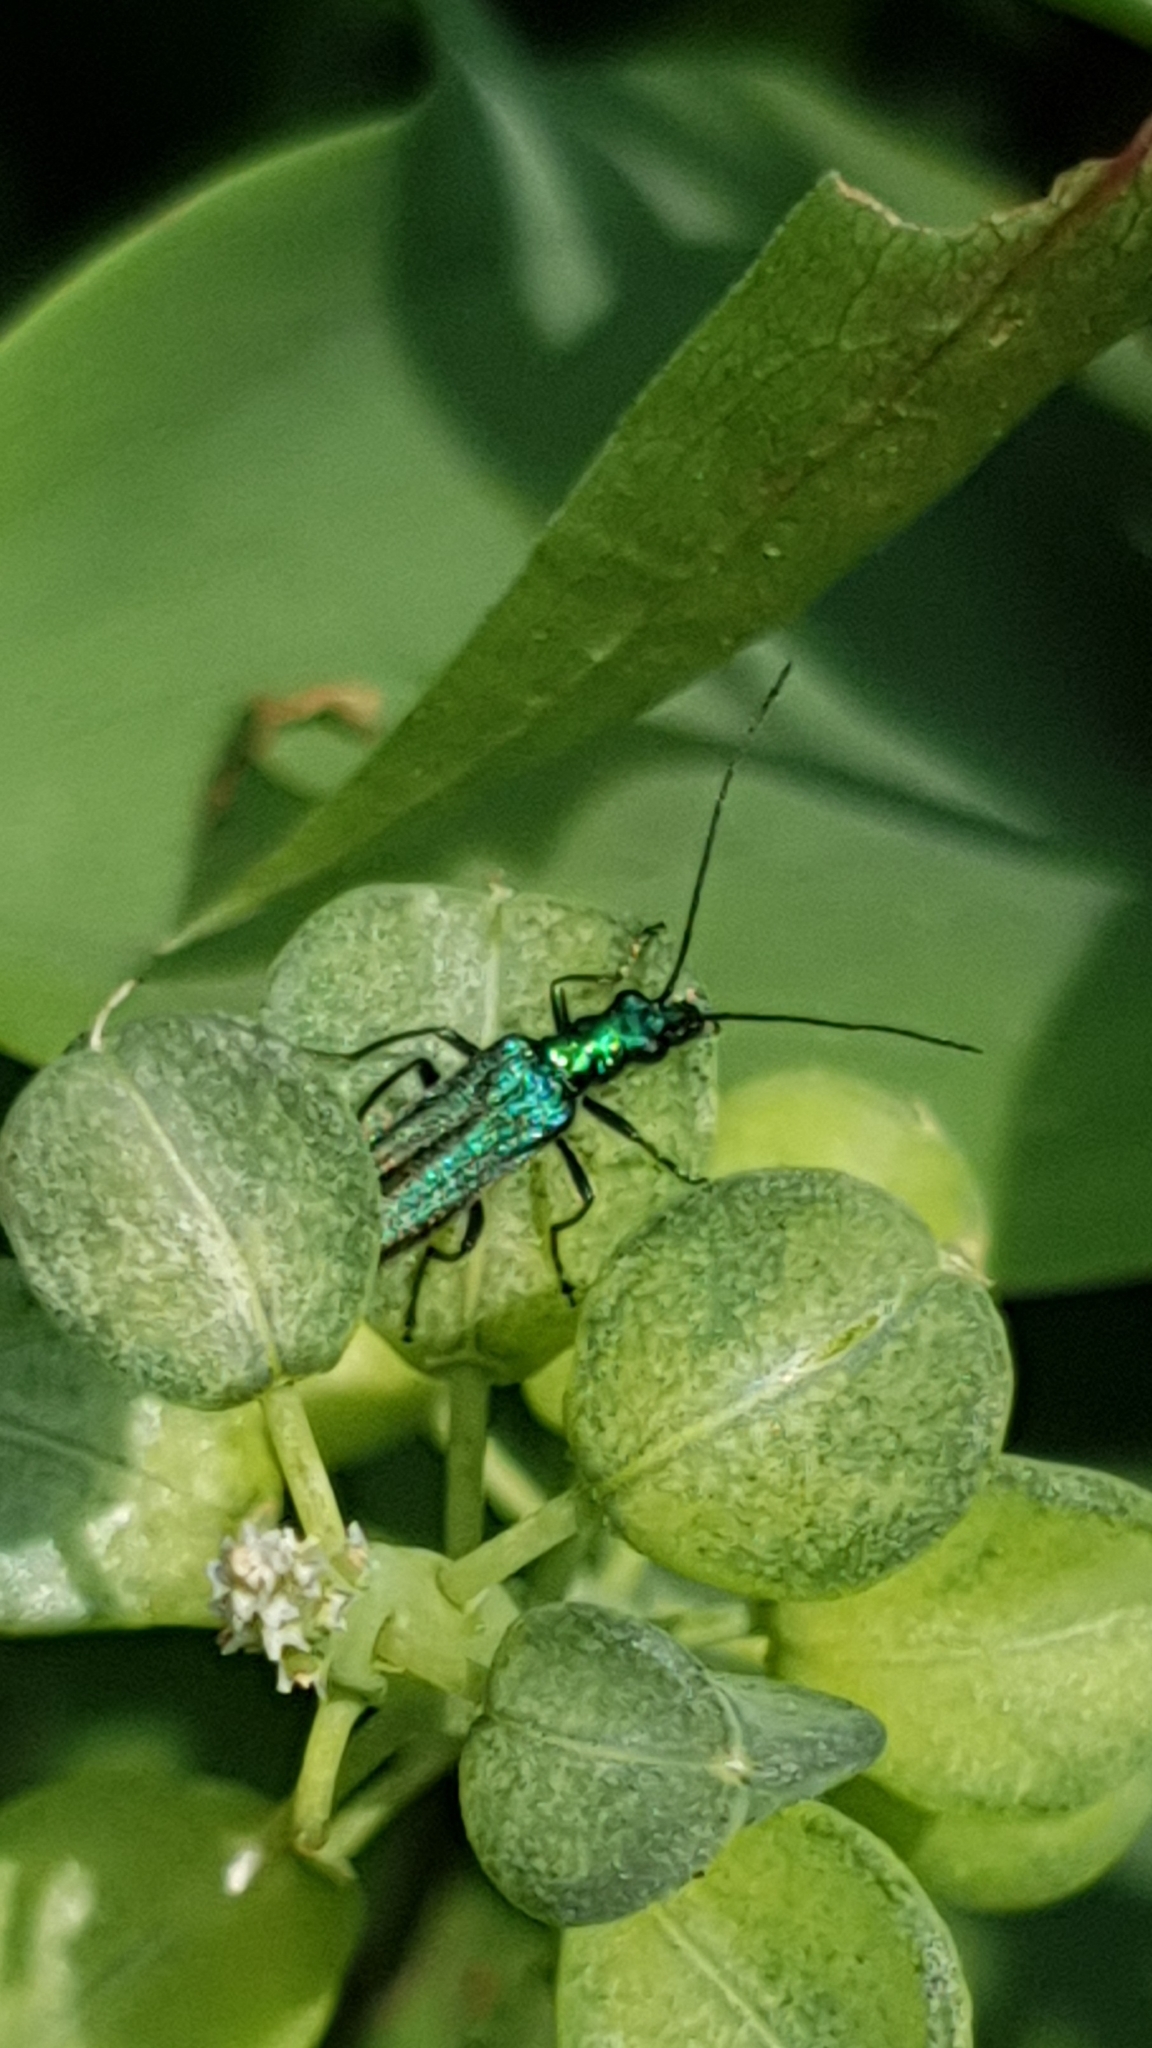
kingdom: Animalia
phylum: Arthropoda
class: Insecta
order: Coleoptera
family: Oedemeridae
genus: Oedemera
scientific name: Oedemera nobilis
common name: Swollen-thighed beetle
